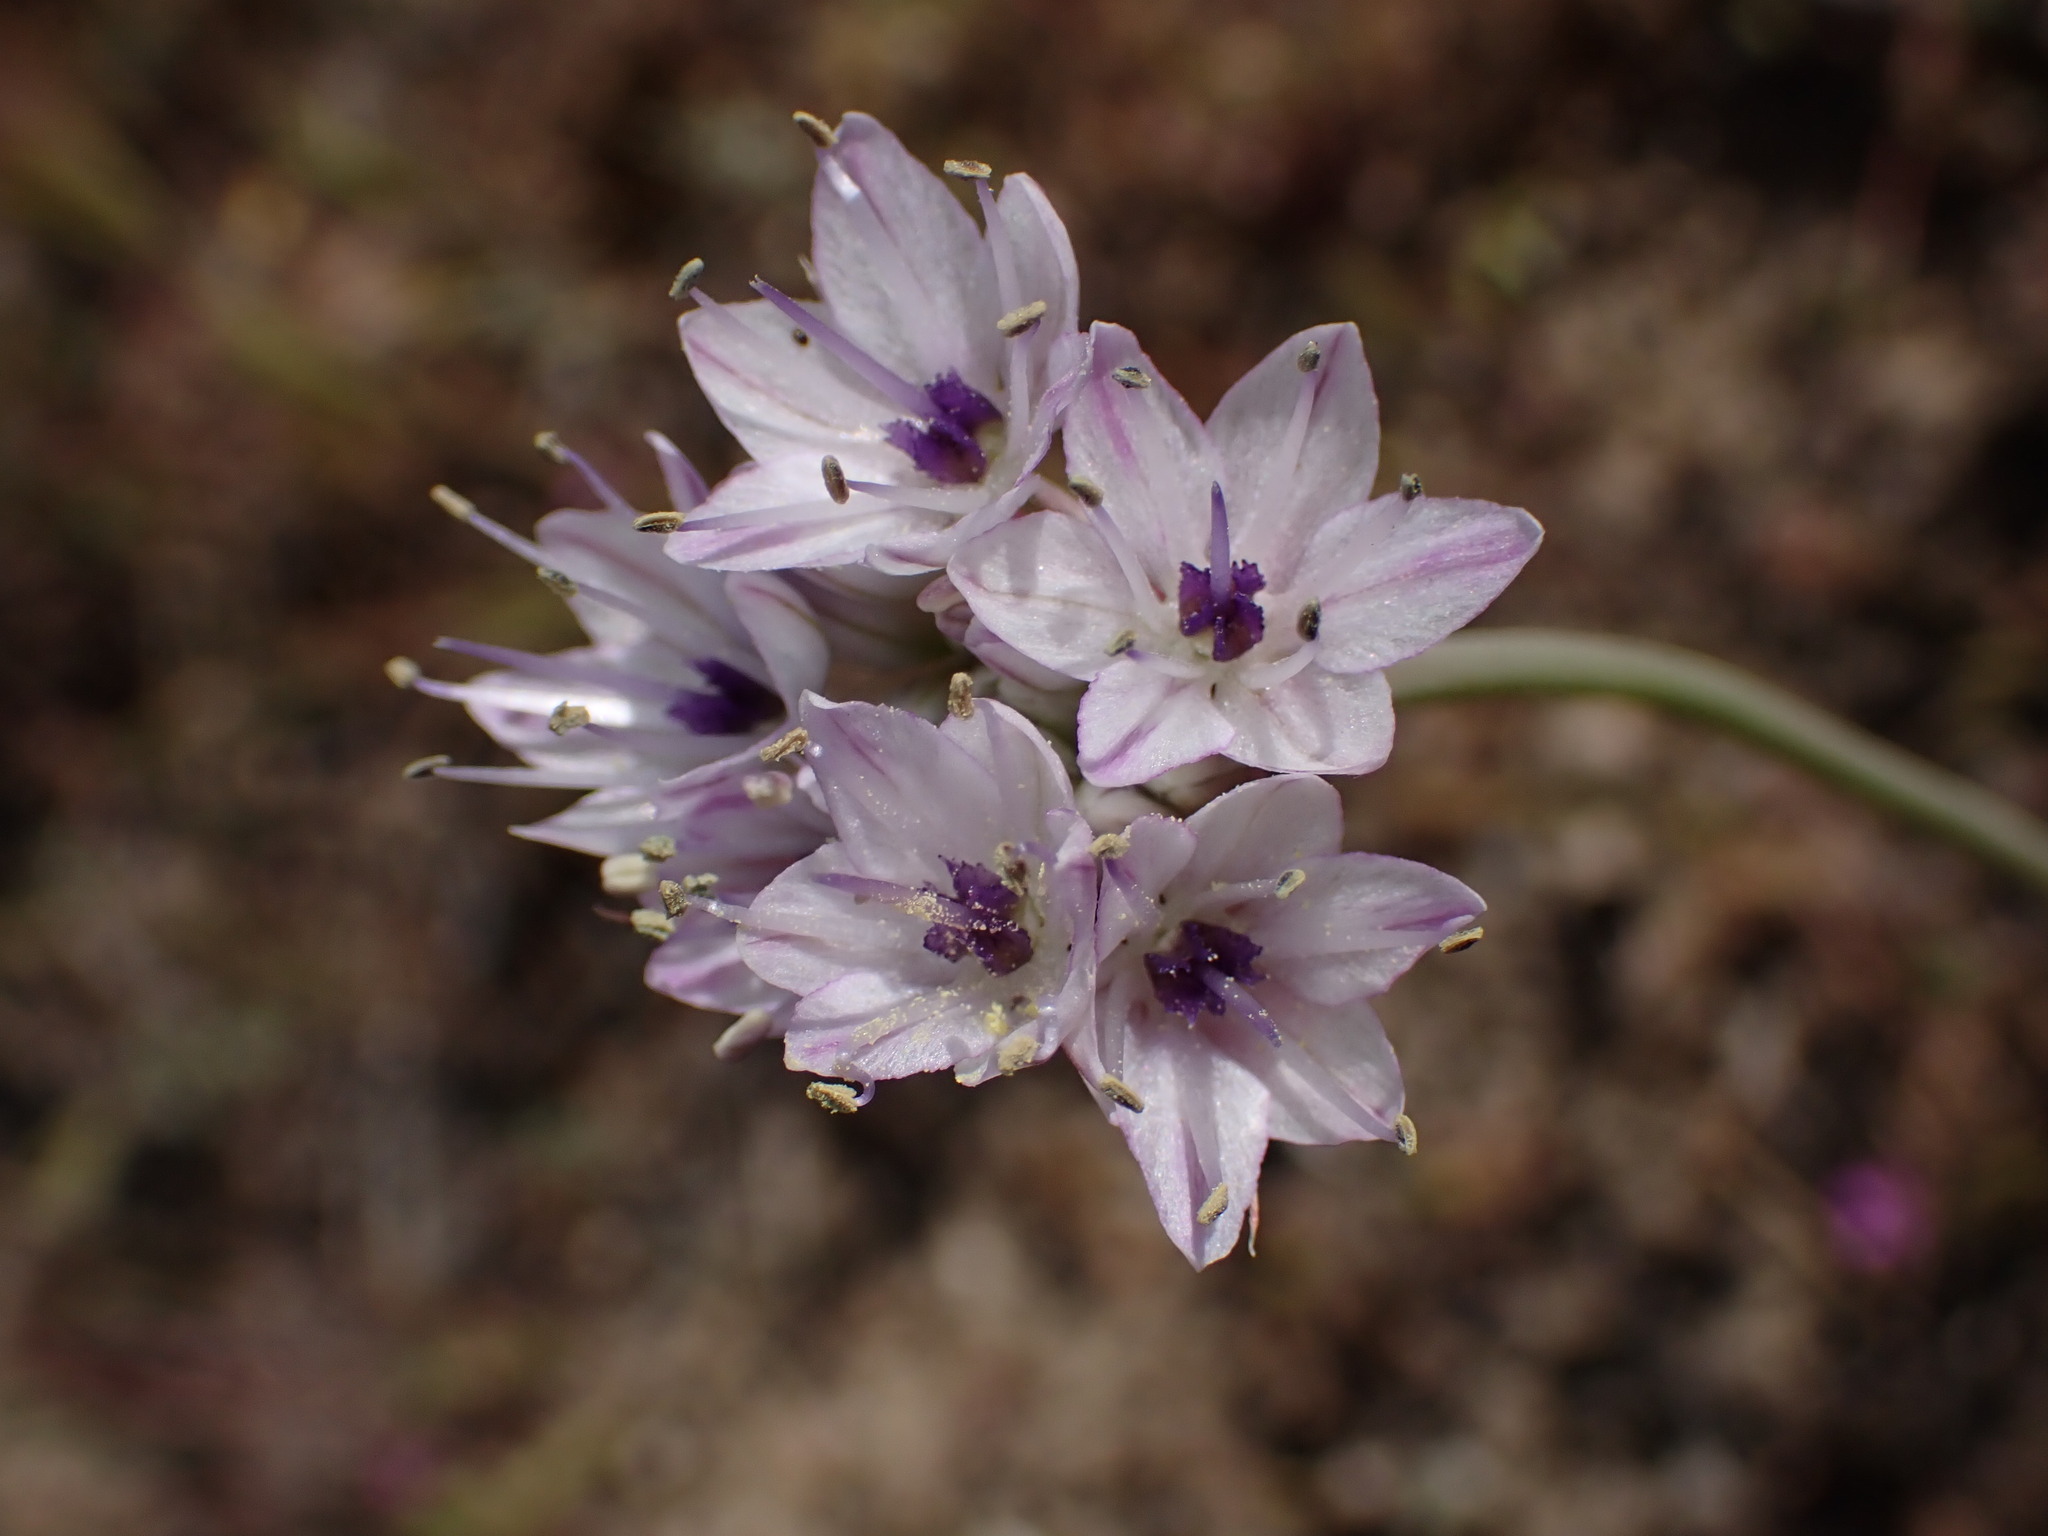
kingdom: Plantae
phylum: Tracheophyta
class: Liliopsida
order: Asparagales
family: Amaryllidaceae
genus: Allium
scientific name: Allium howellii
